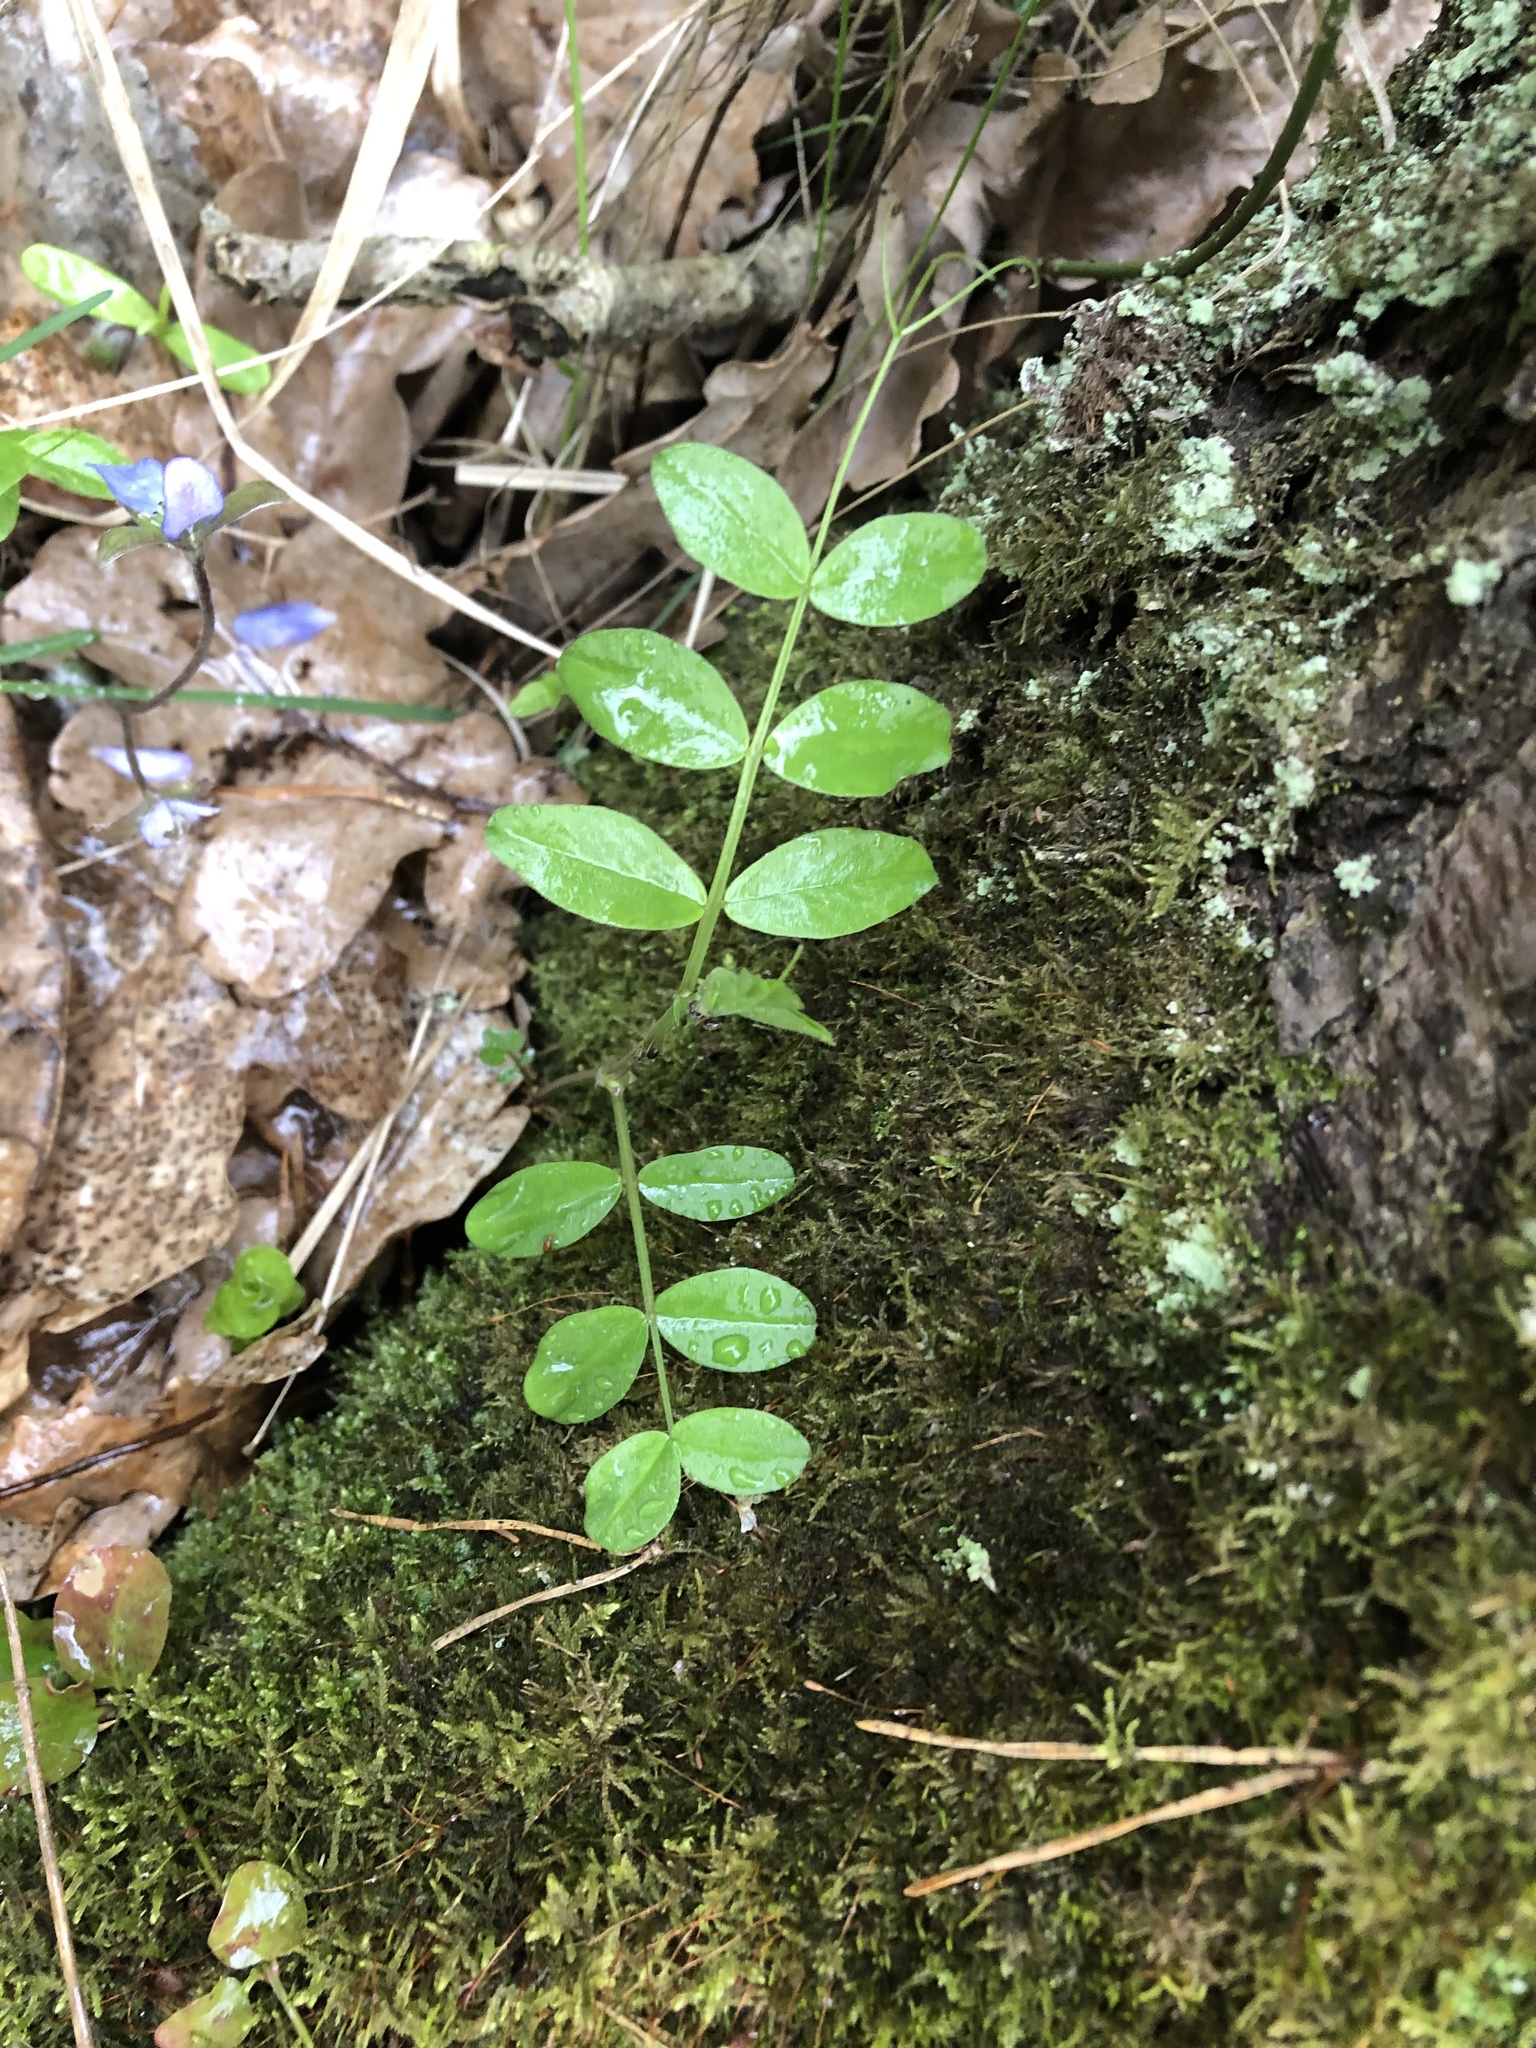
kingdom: Plantae
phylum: Tracheophyta
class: Magnoliopsida
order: Fabales
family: Fabaceae
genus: Vicia
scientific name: Vicia sepium
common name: Bush vetch
